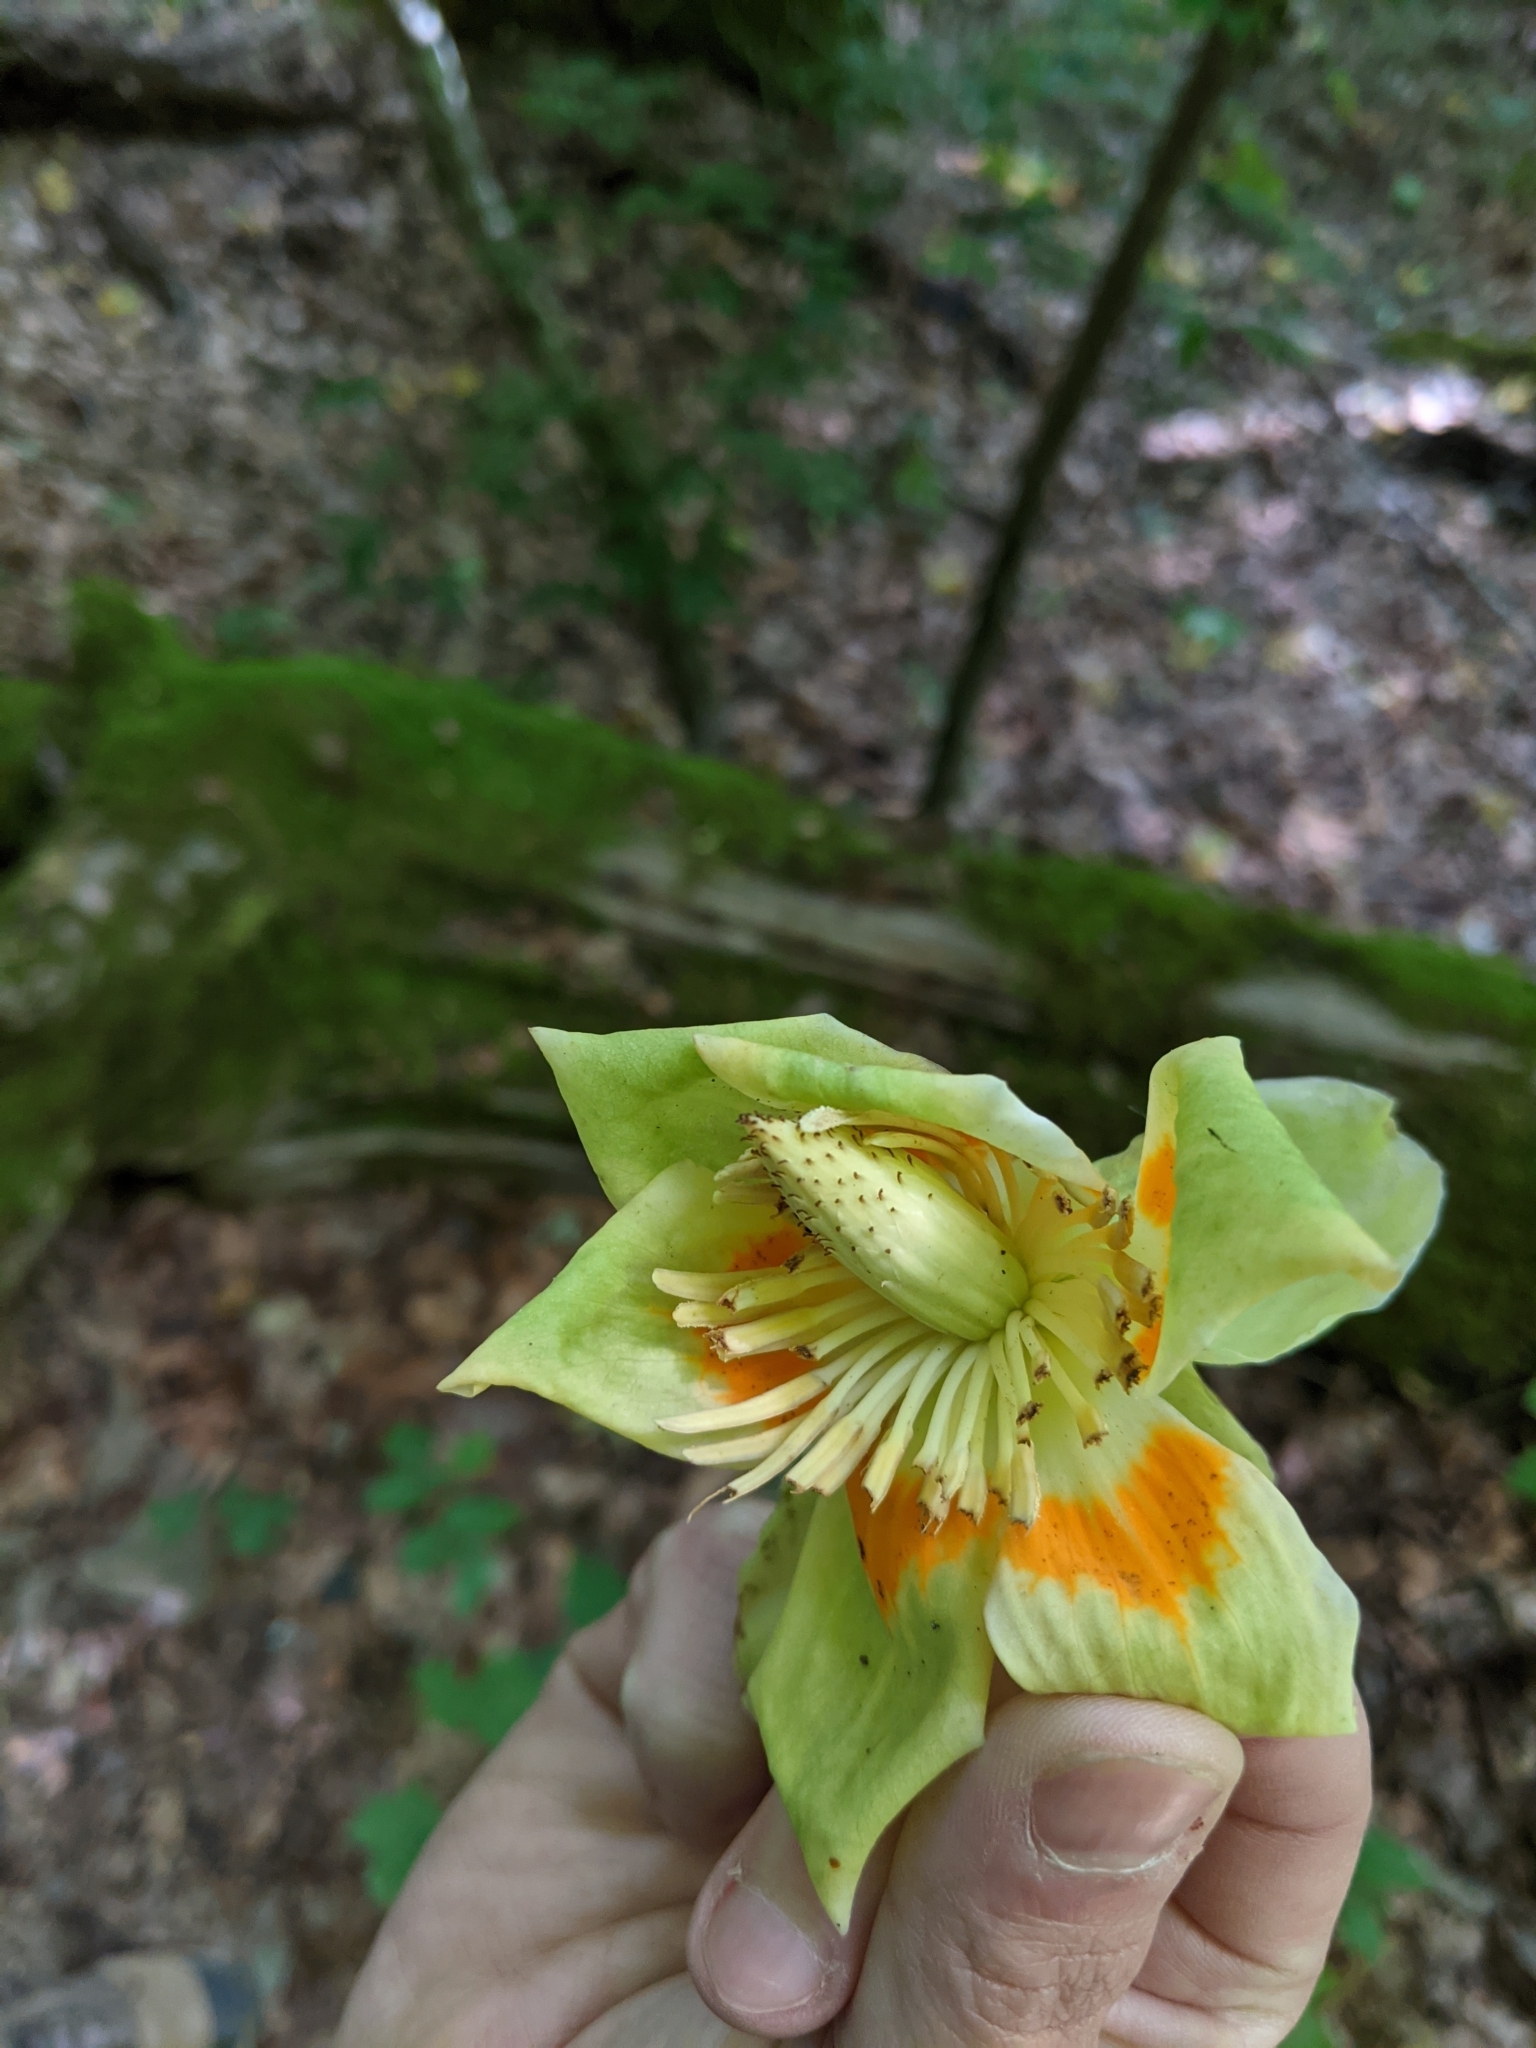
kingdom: Plantae
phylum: Tracheophyta
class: Magnoliopsida
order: Magnoliales
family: Magnoliaceae
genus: Liriodendron
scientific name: Liriodendron tulipifera
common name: Tulip tree
